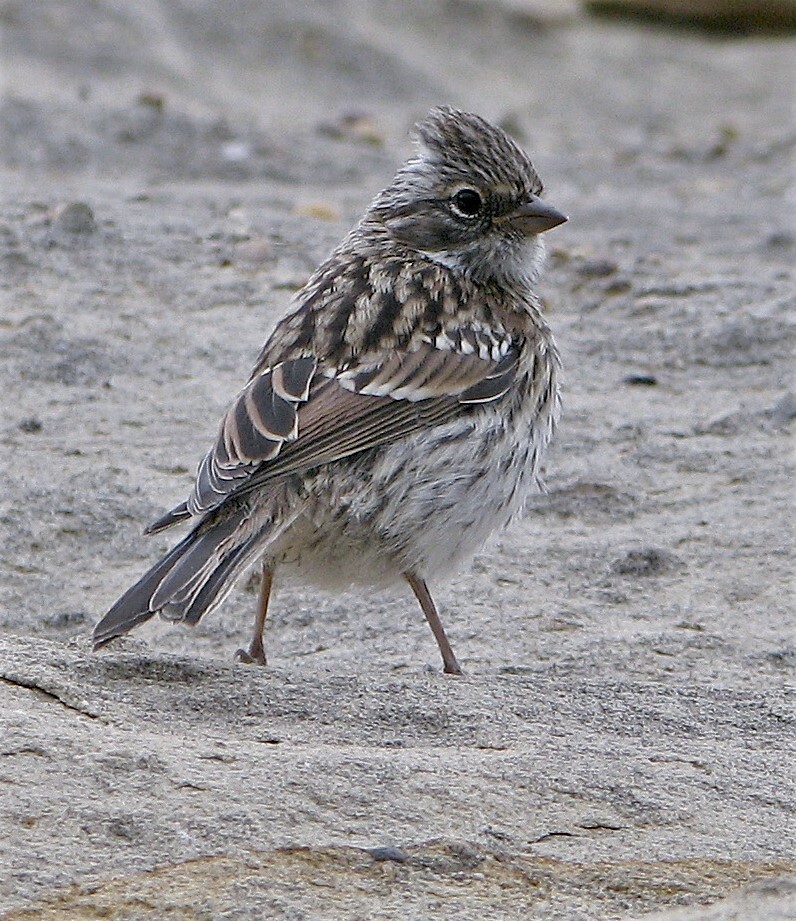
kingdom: Animalia
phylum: Chordata
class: Aves
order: Passeriformes
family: Passerellidae
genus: Zonotrichia
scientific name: Zonotrichia capensis
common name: Rufous-collared sparrow
